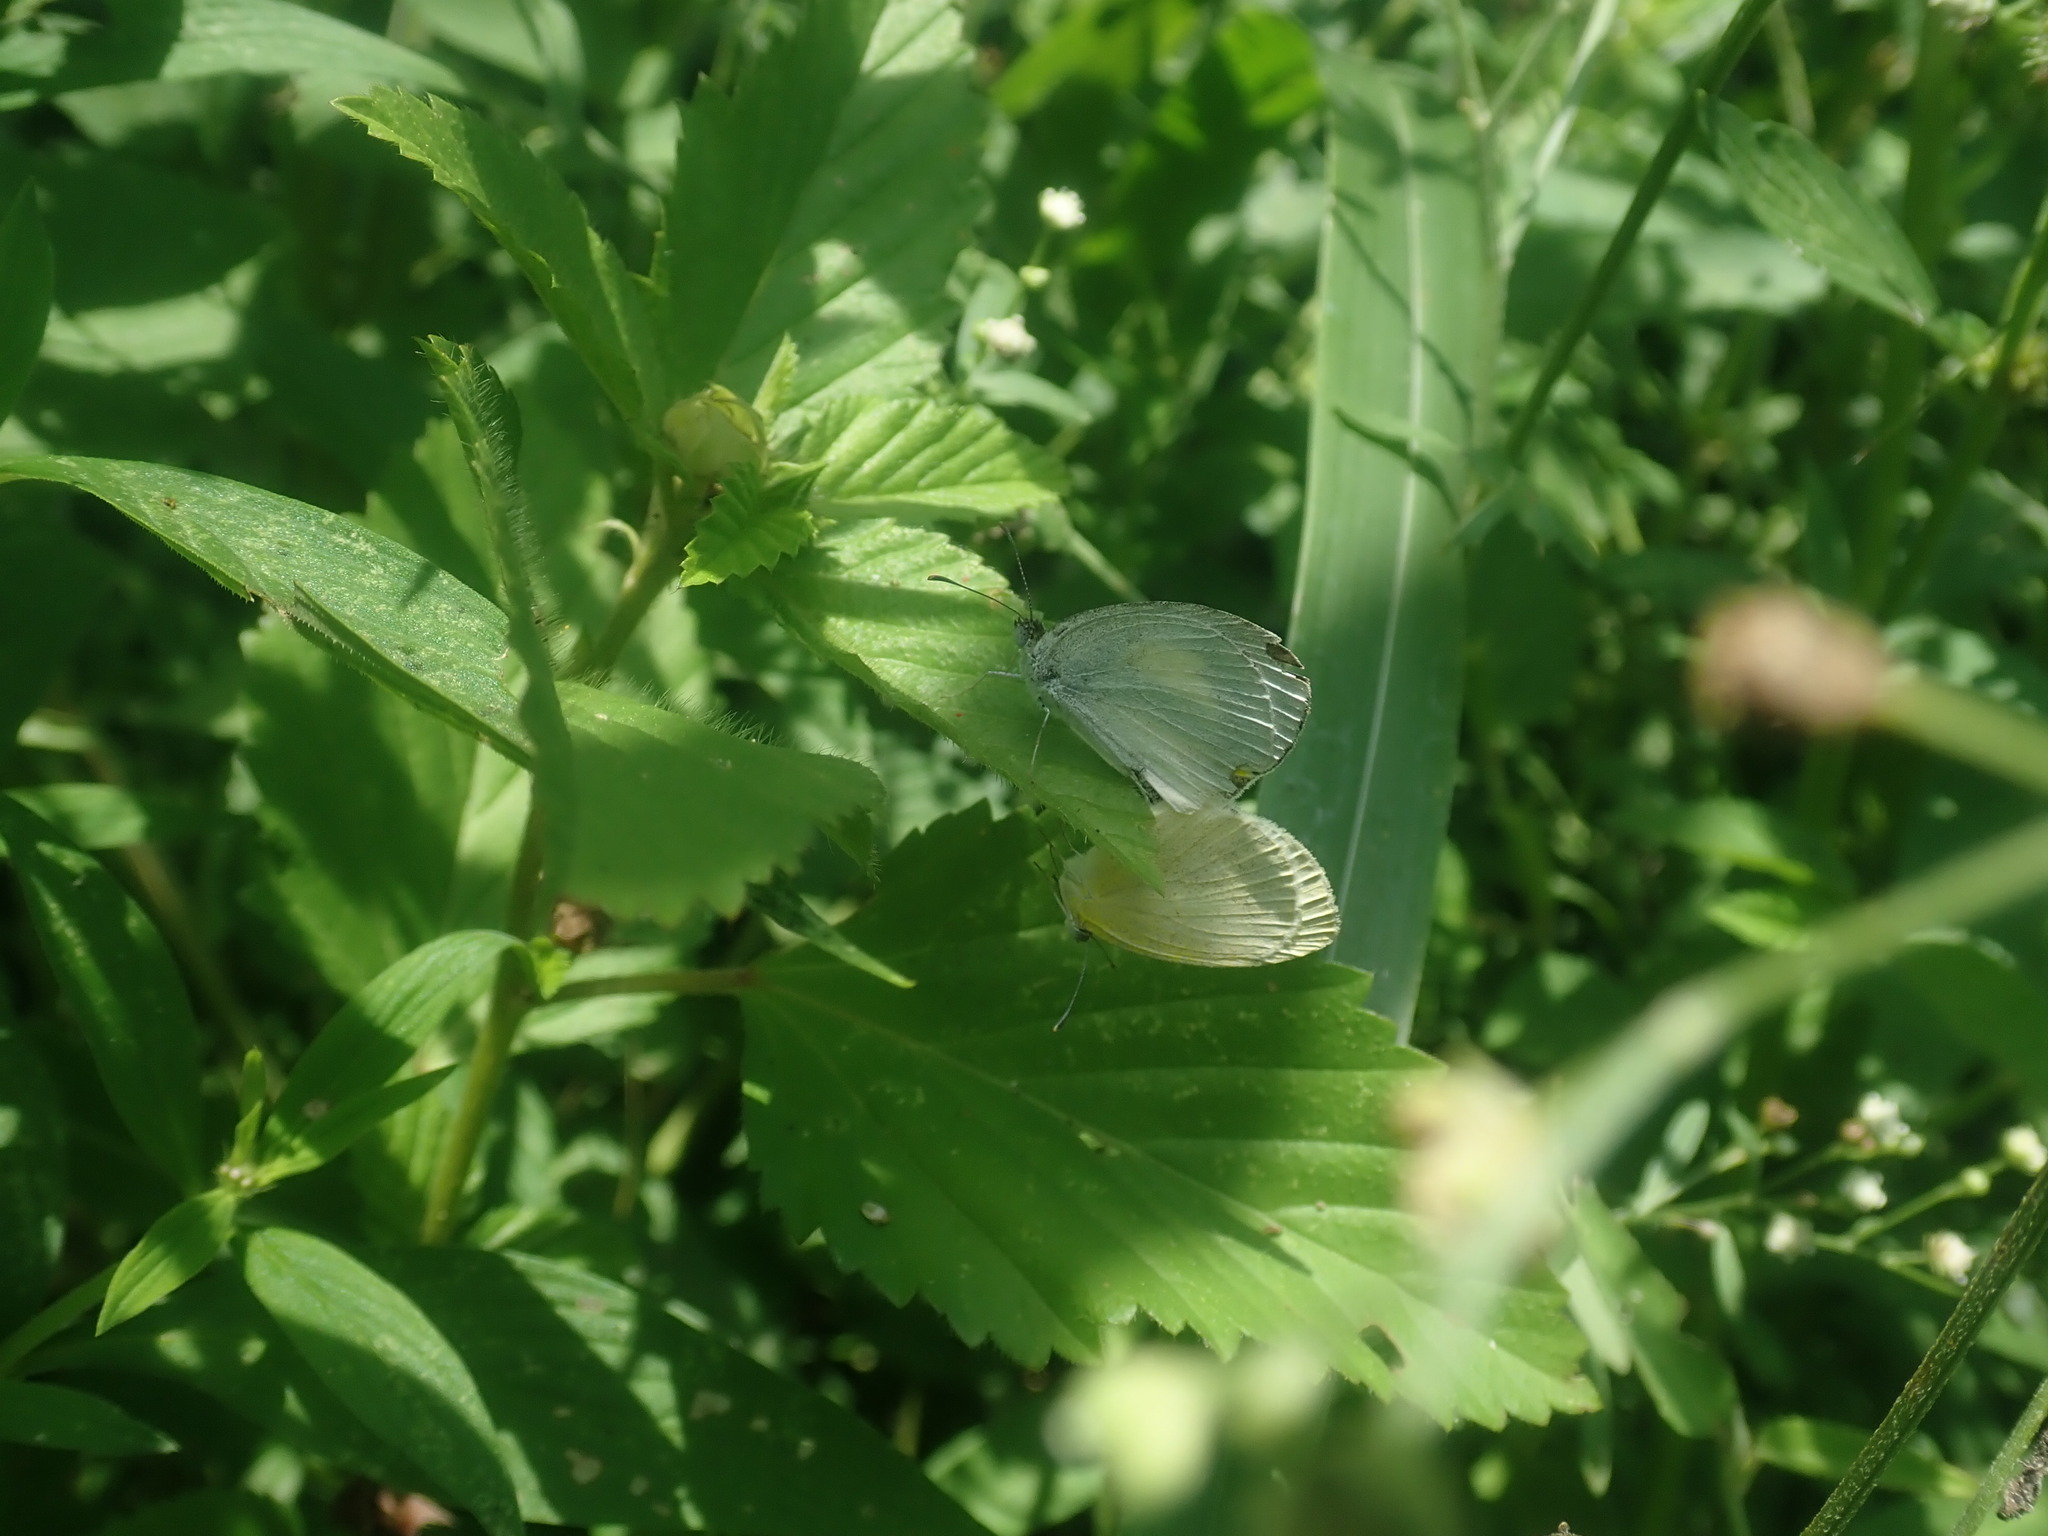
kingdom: Animalia
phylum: Arthropoda
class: Insecta
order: Lepidoptera
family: Pieridae
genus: Eurema
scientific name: Eurema daira
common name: Barred sulphur
